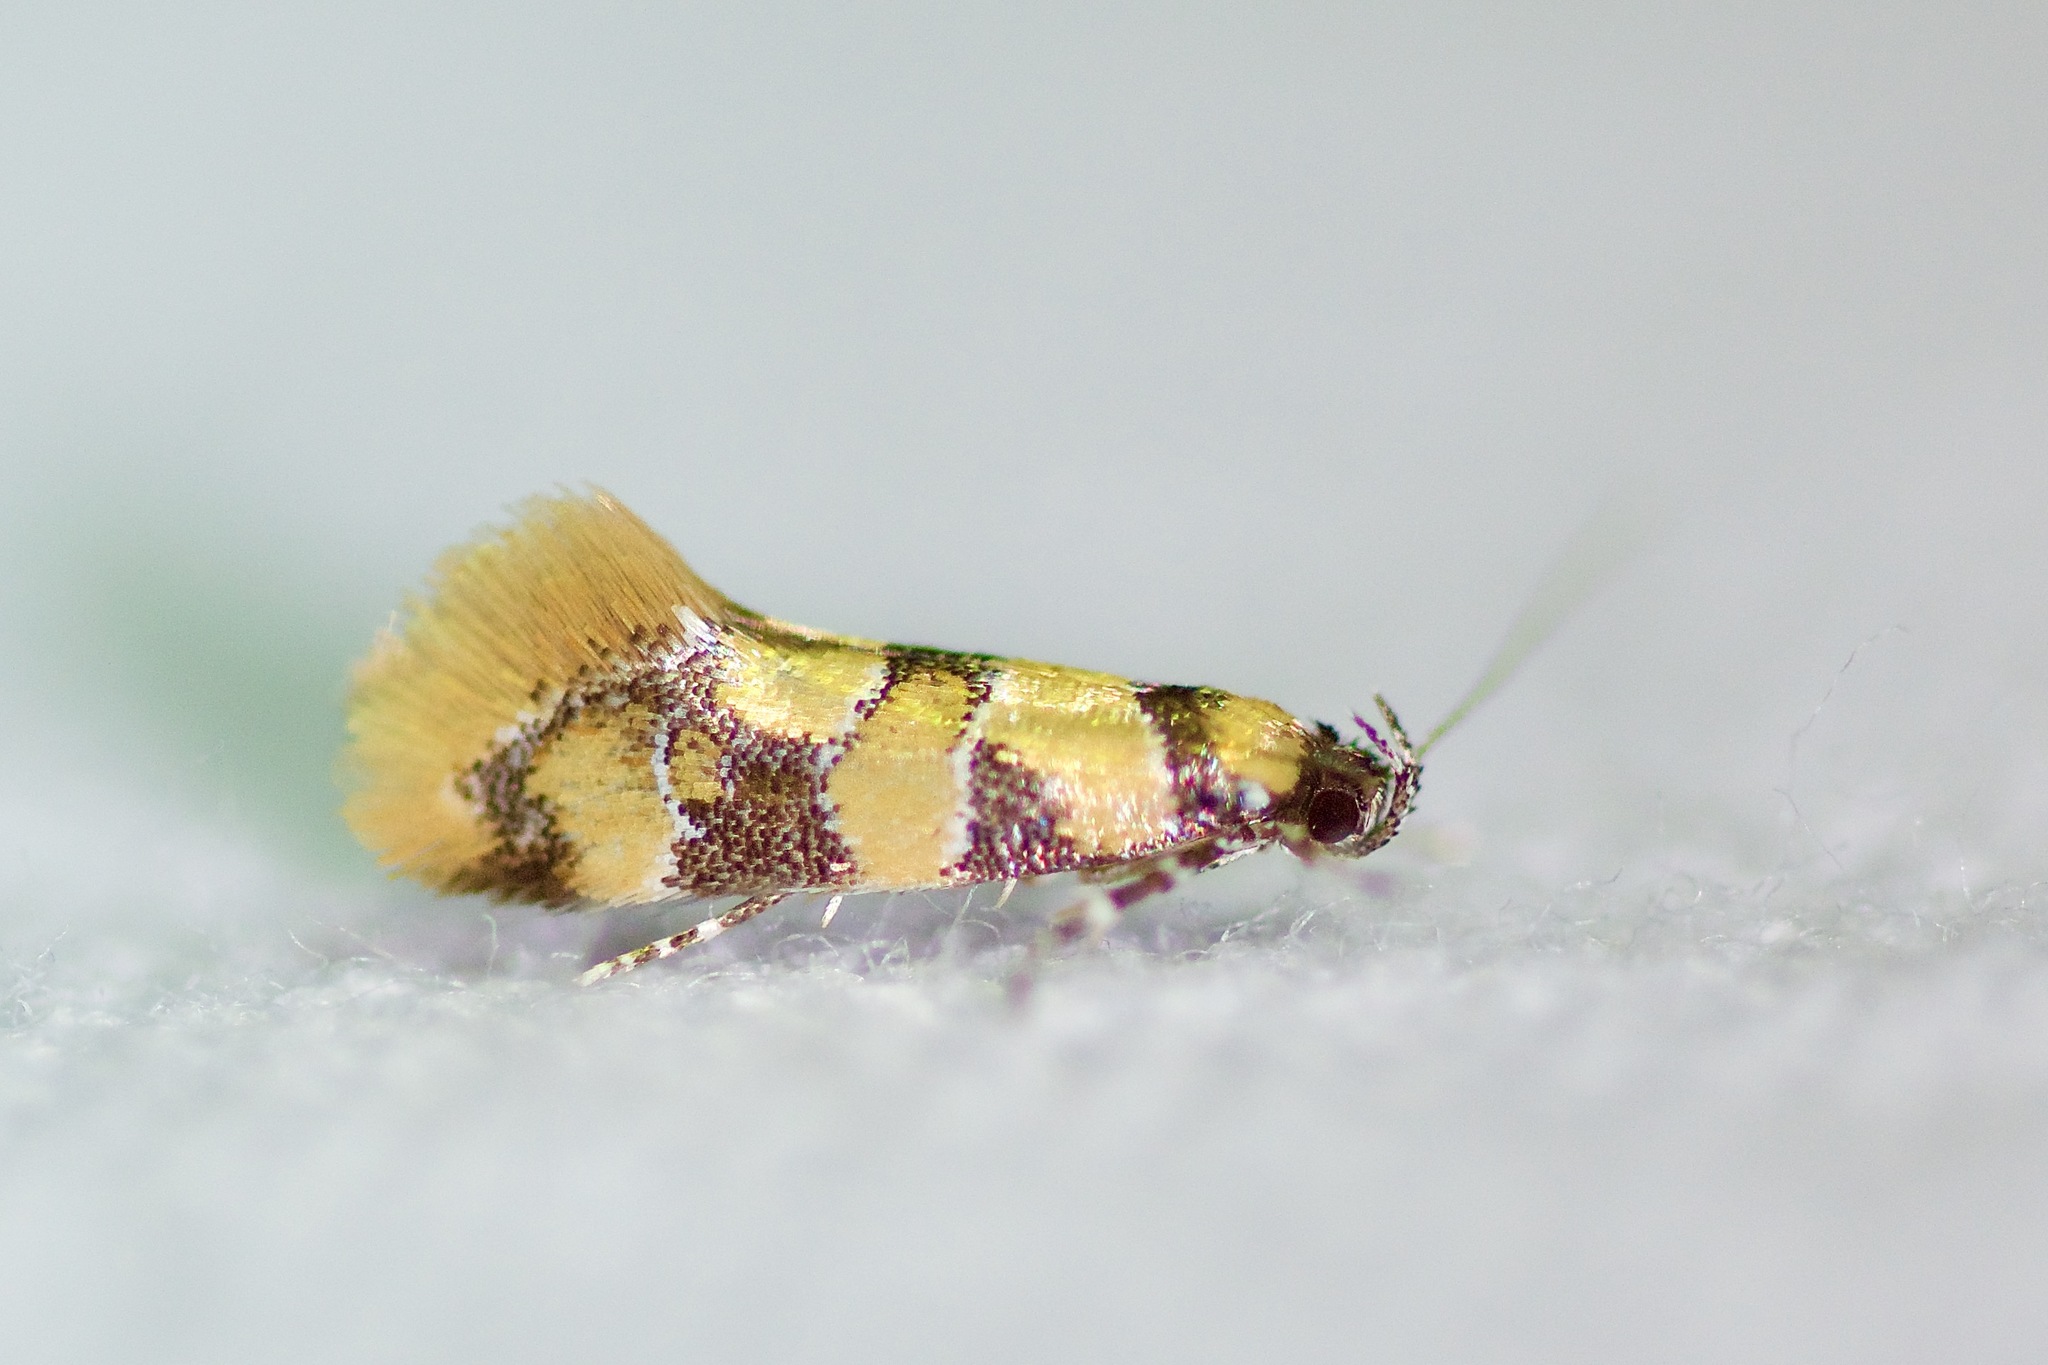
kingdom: Animalia
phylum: Arthropoda
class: Insecta
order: Lepidoptera
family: Oecophoridae
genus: Decantha
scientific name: Decantha borkhausenii
